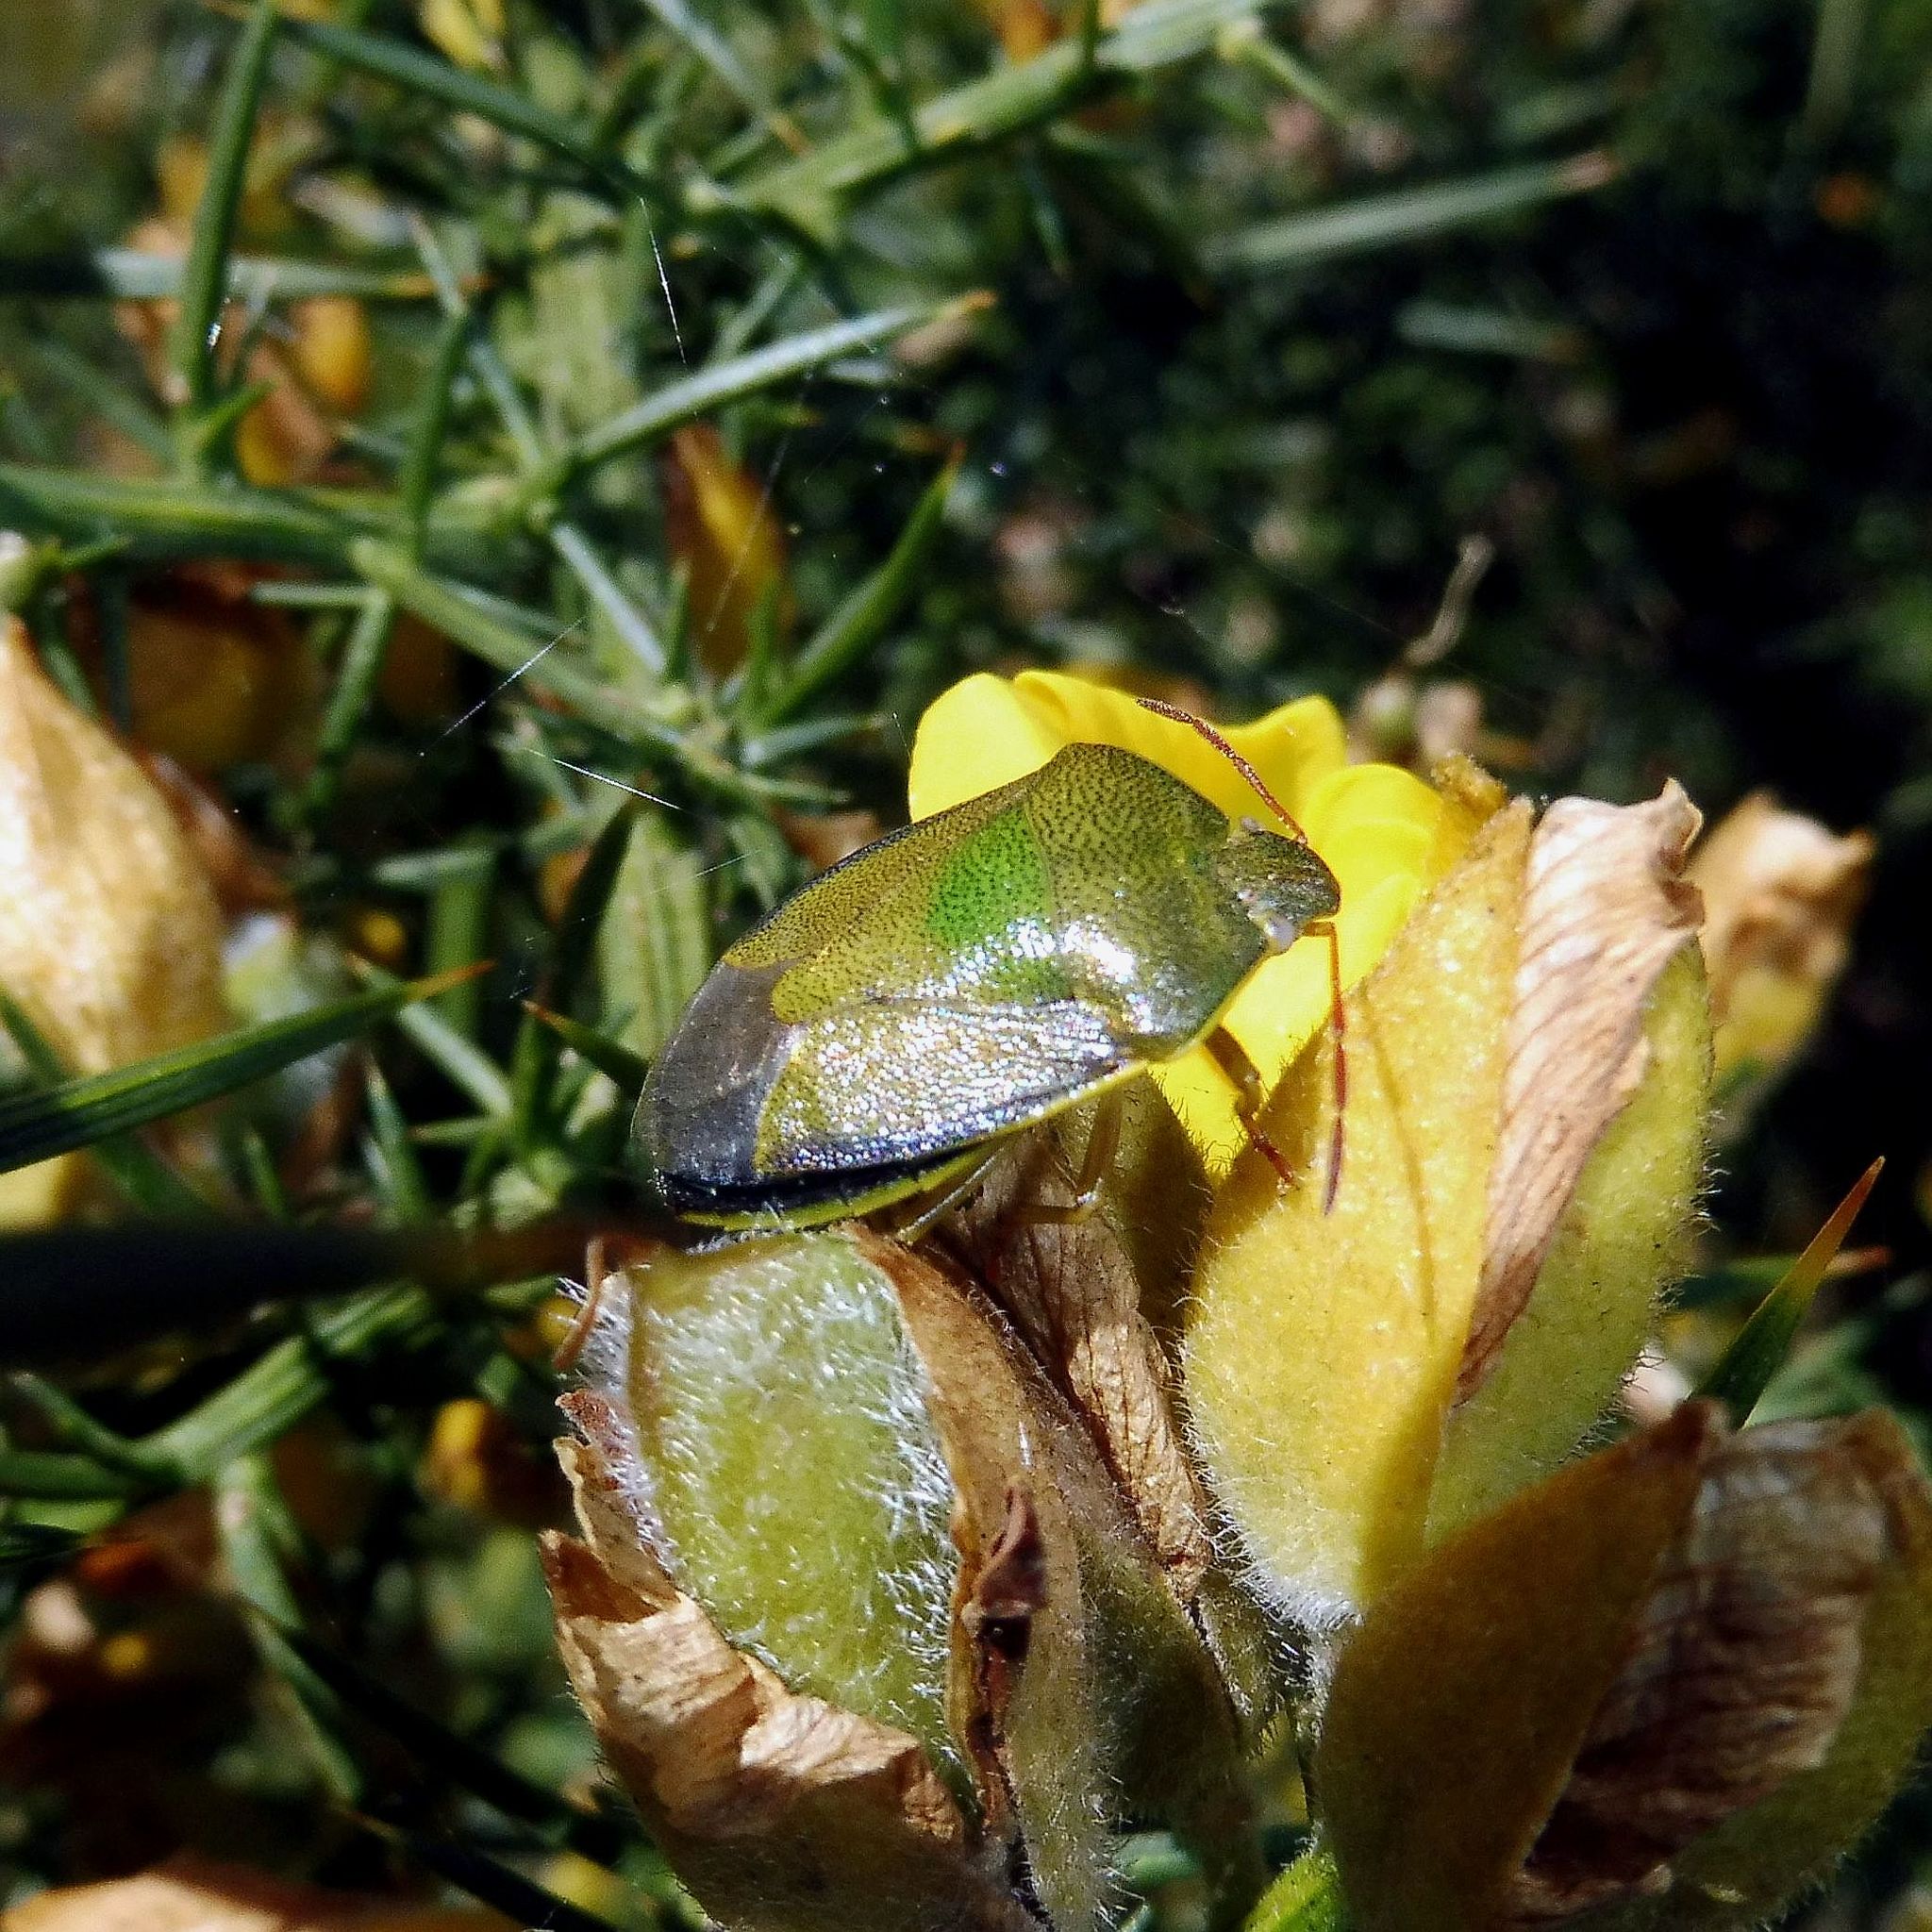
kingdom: Animalia
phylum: Arthropoda
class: Insecta
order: Hemiptera
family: Pentatomidae
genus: Piezodorus
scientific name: Piezodorus lituratus
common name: Stink bug
